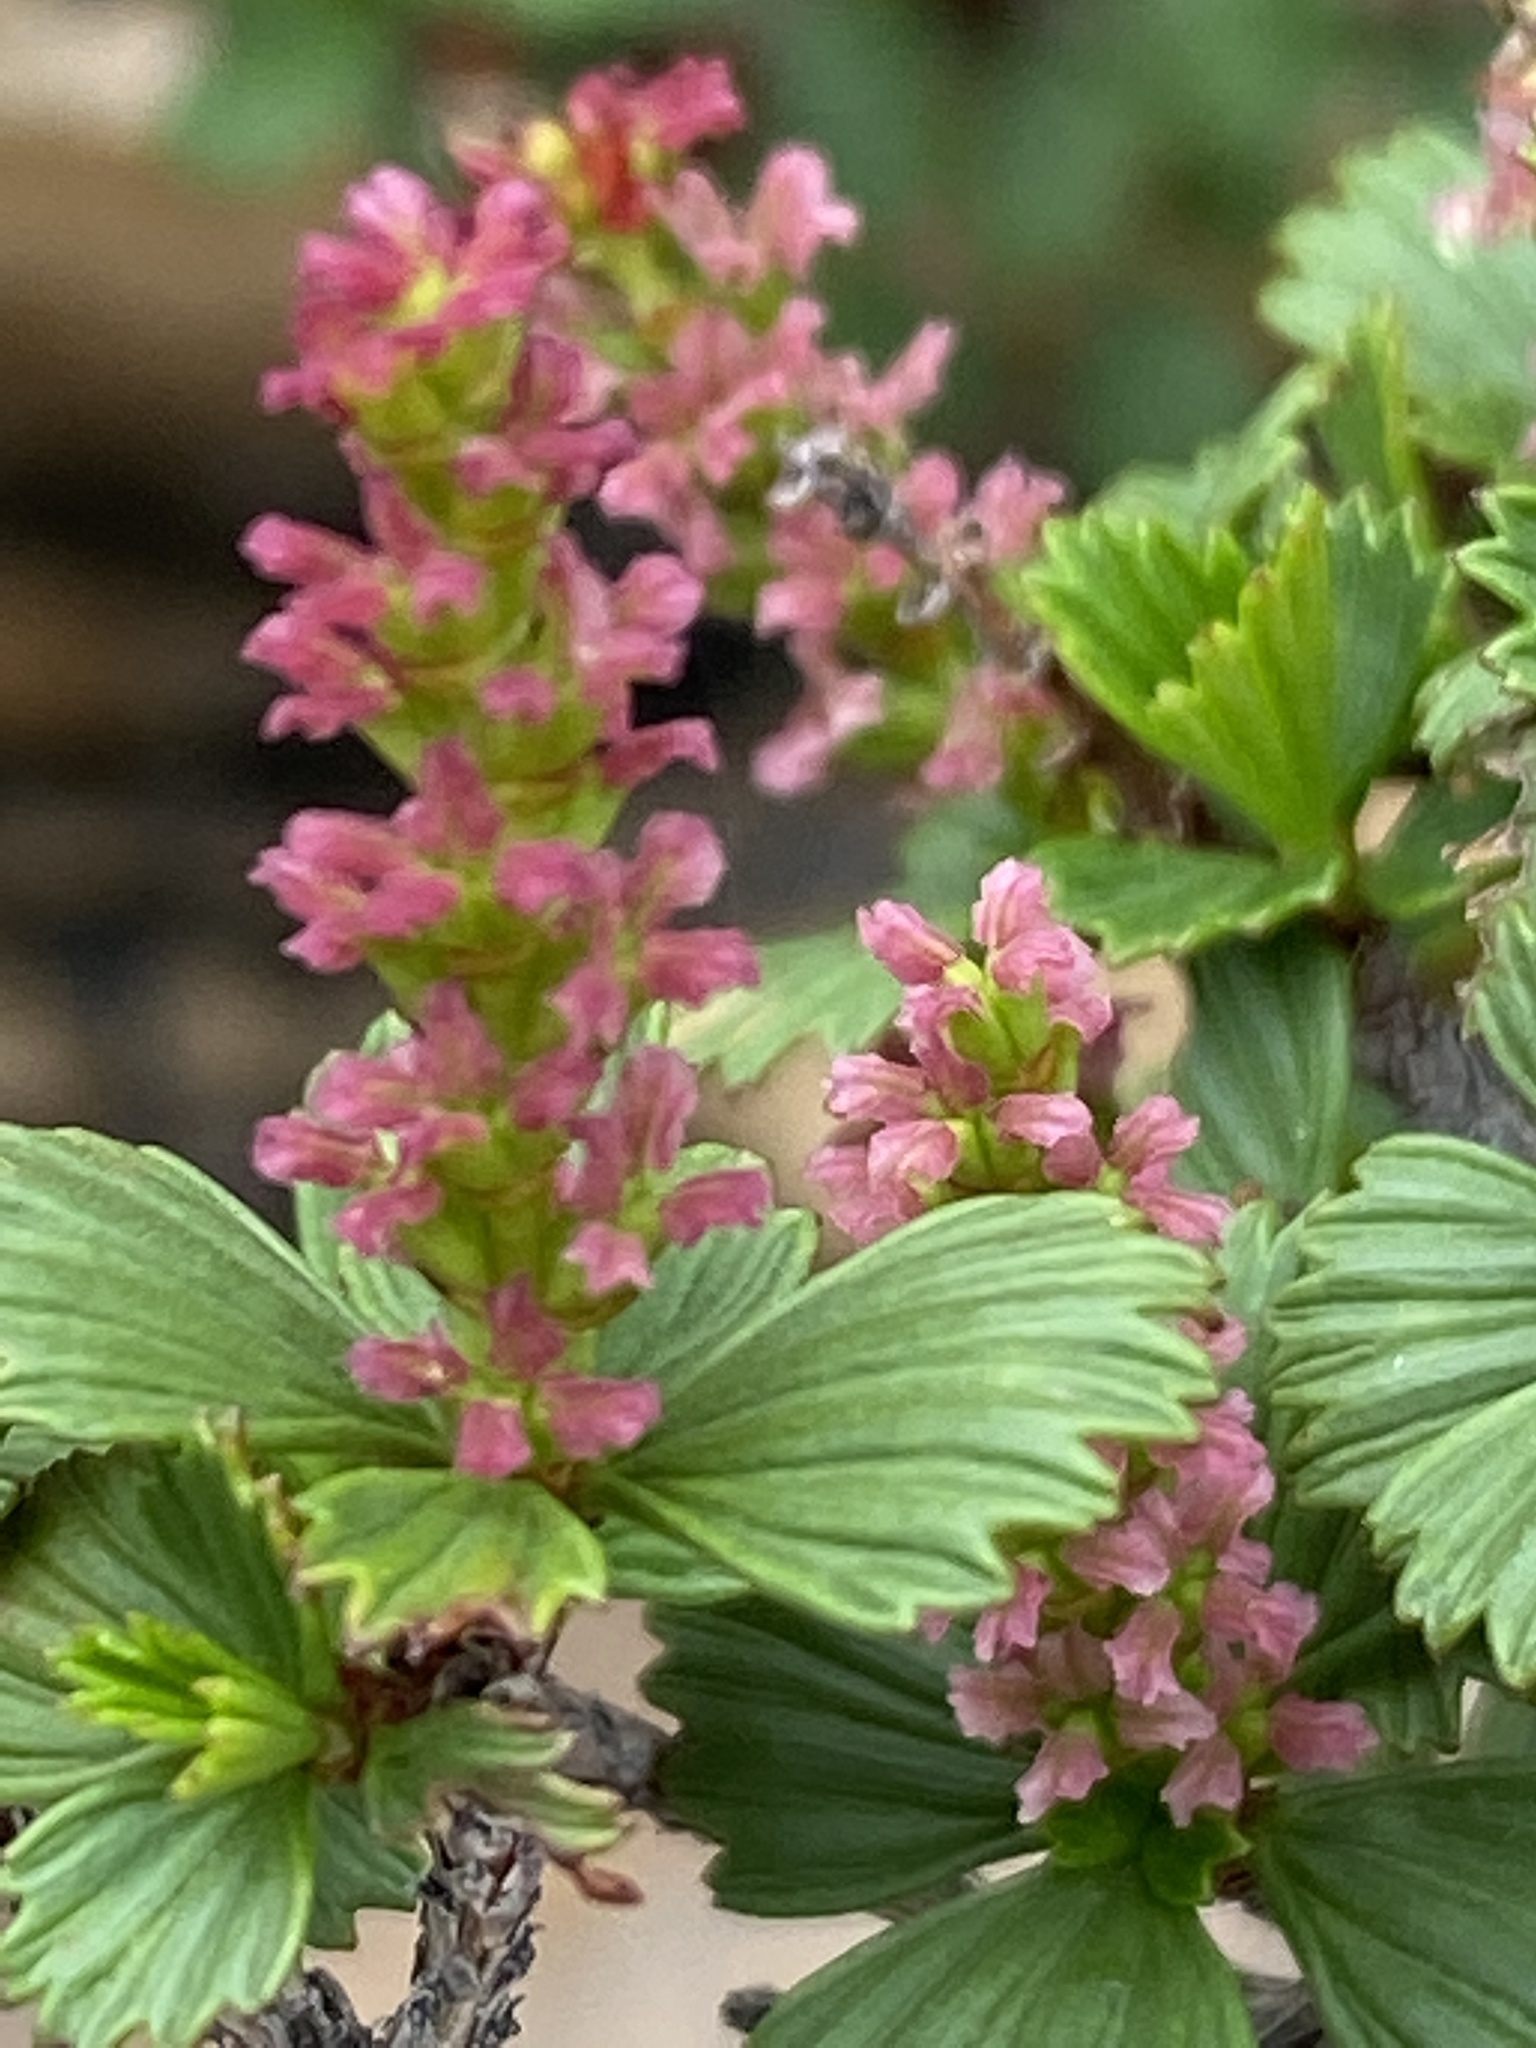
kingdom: Plantae
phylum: Tracheophyta
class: Magnoliopsida
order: Gunnerales
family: Myrothamnaceae
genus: Myrothamnus
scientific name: Myrothamnus flabellifolius
